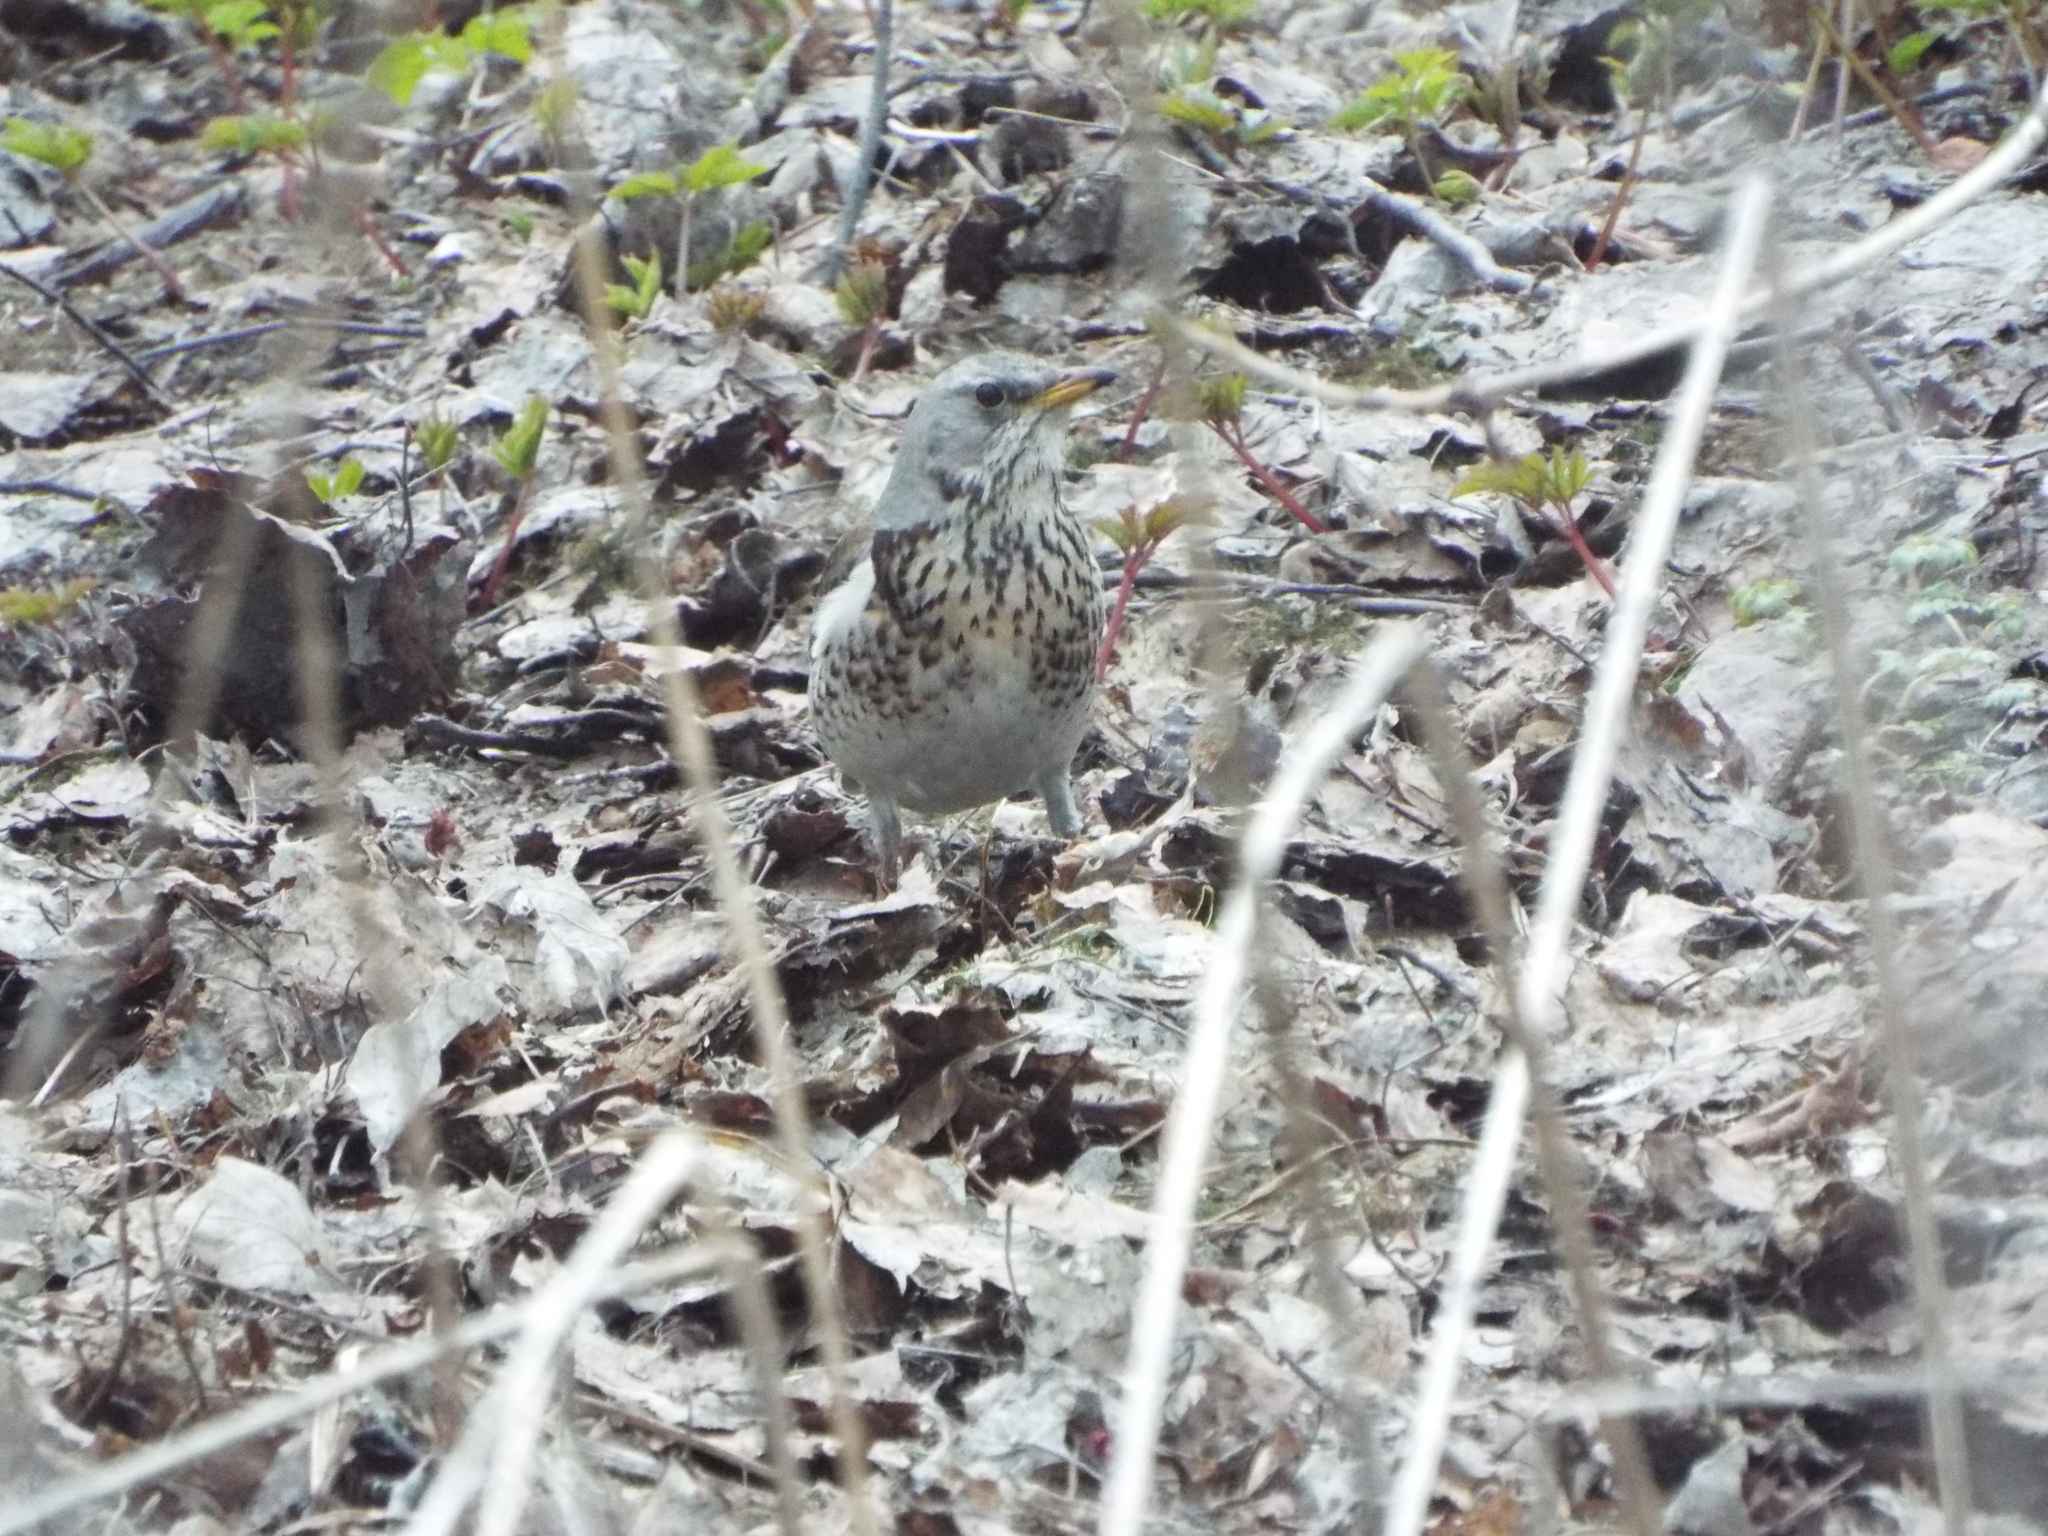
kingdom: Animalia
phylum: Chordata
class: Aves
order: Passeriformes
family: Turdidae
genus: Turdus
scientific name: Turdus pilaris
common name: Fieldfare
